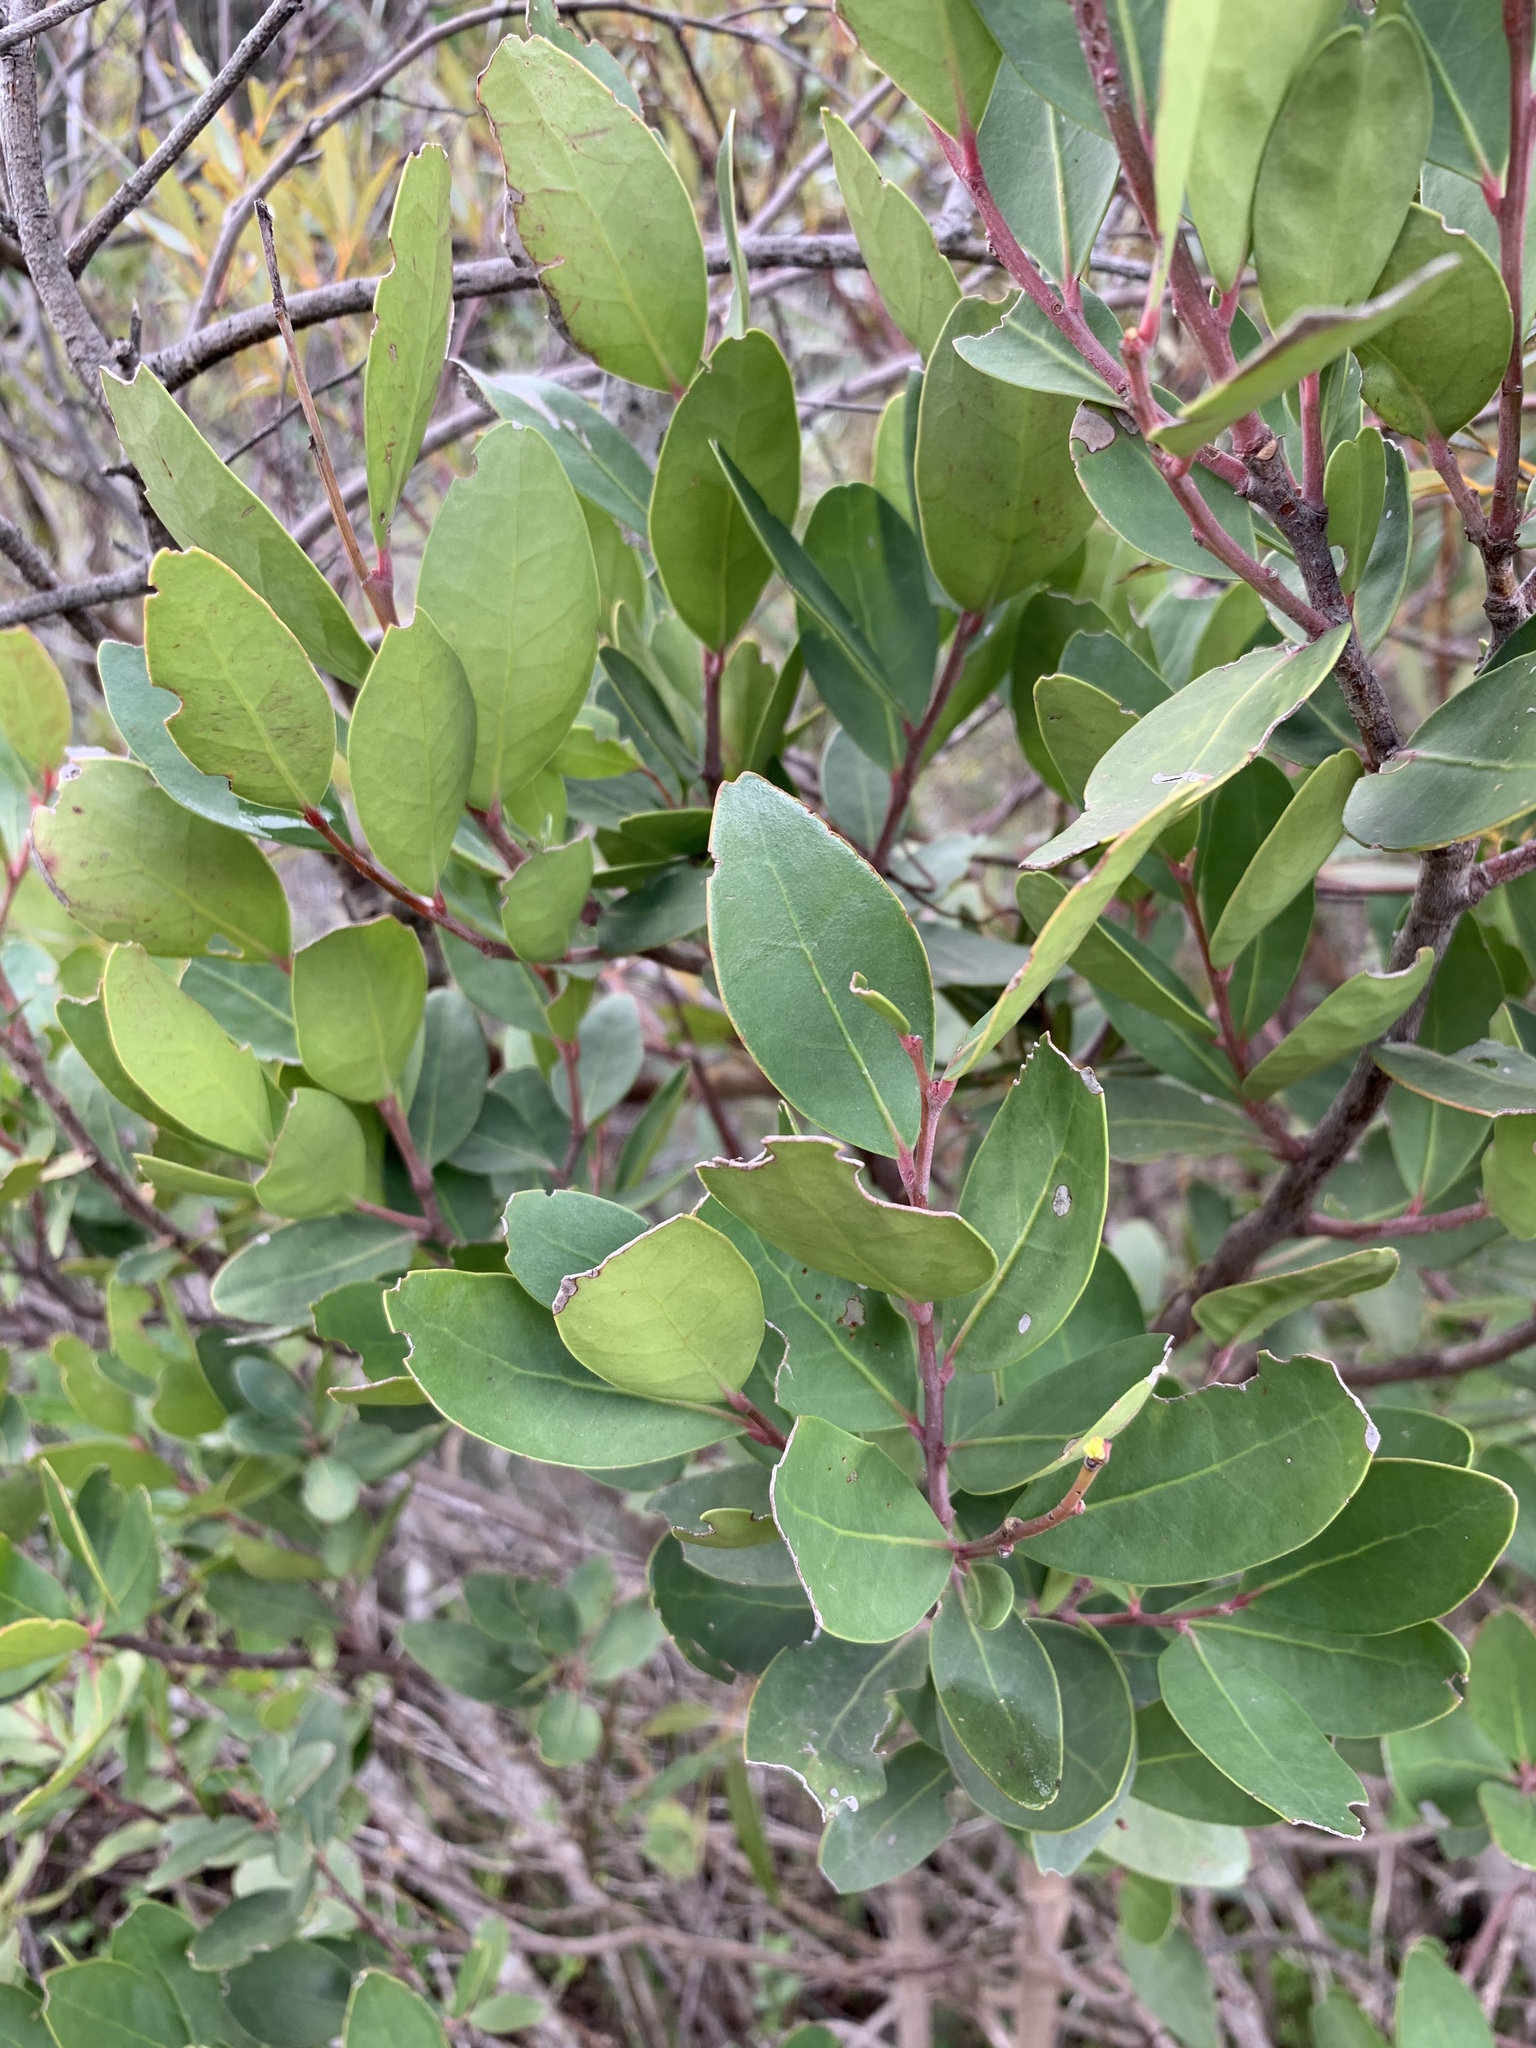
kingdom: Plantae
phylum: Tracheophyta
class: Magnoliopsida
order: Celastrales
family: Celastraceae
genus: Gymnosporia
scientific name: Gymnosporia laurina
